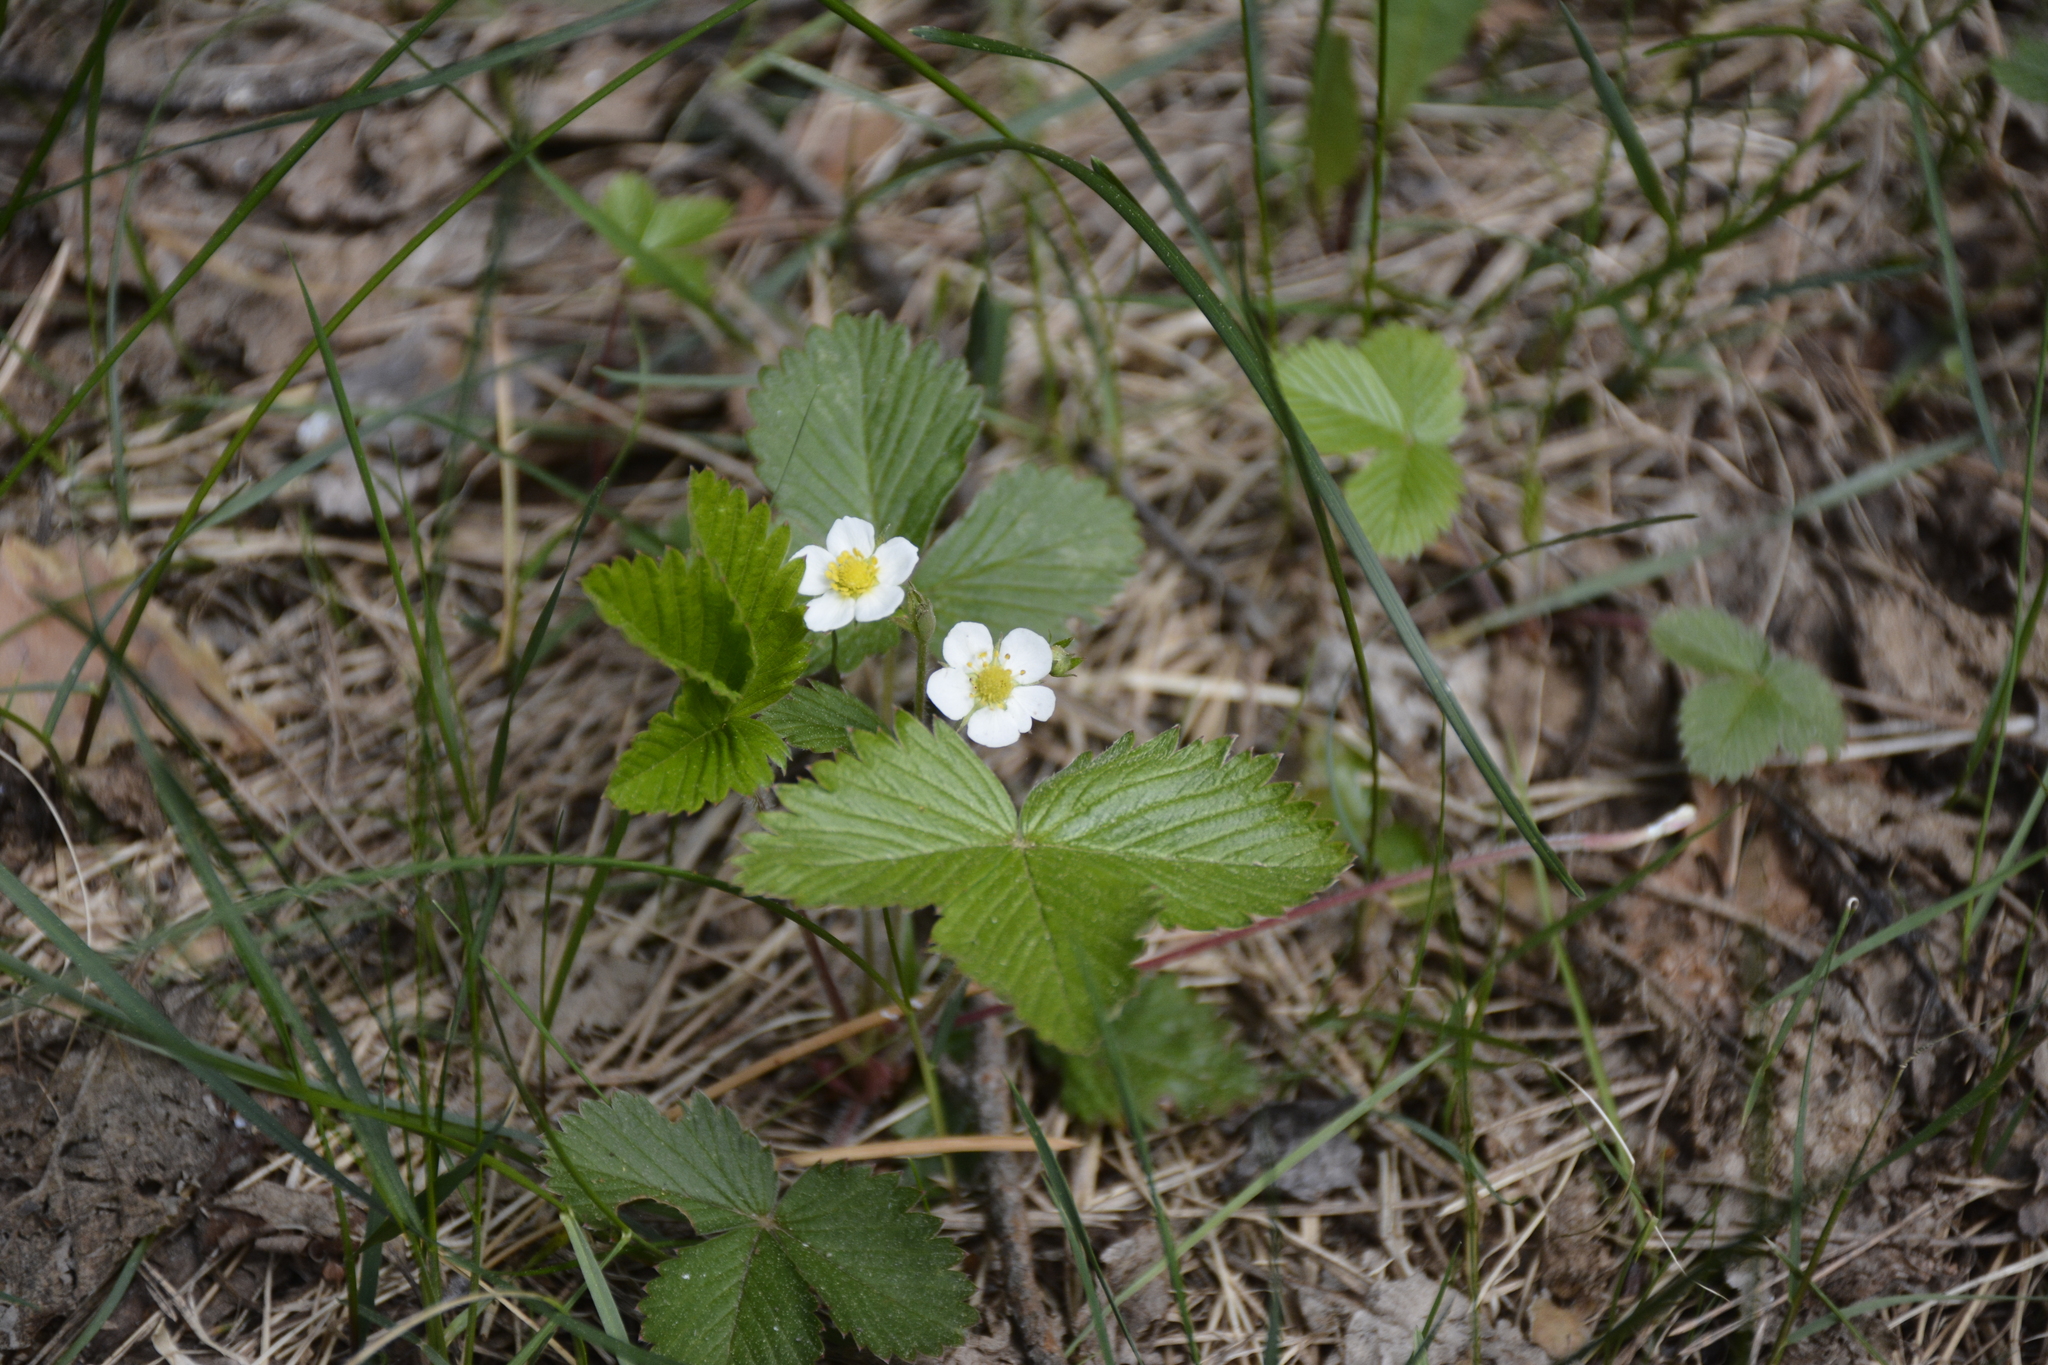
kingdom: Plantae
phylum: Tracheophyta
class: Magnoliopsida
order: Rosales
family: Rosaceae
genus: Fragaria
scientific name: Fragaria vesca
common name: Wild strawberry
